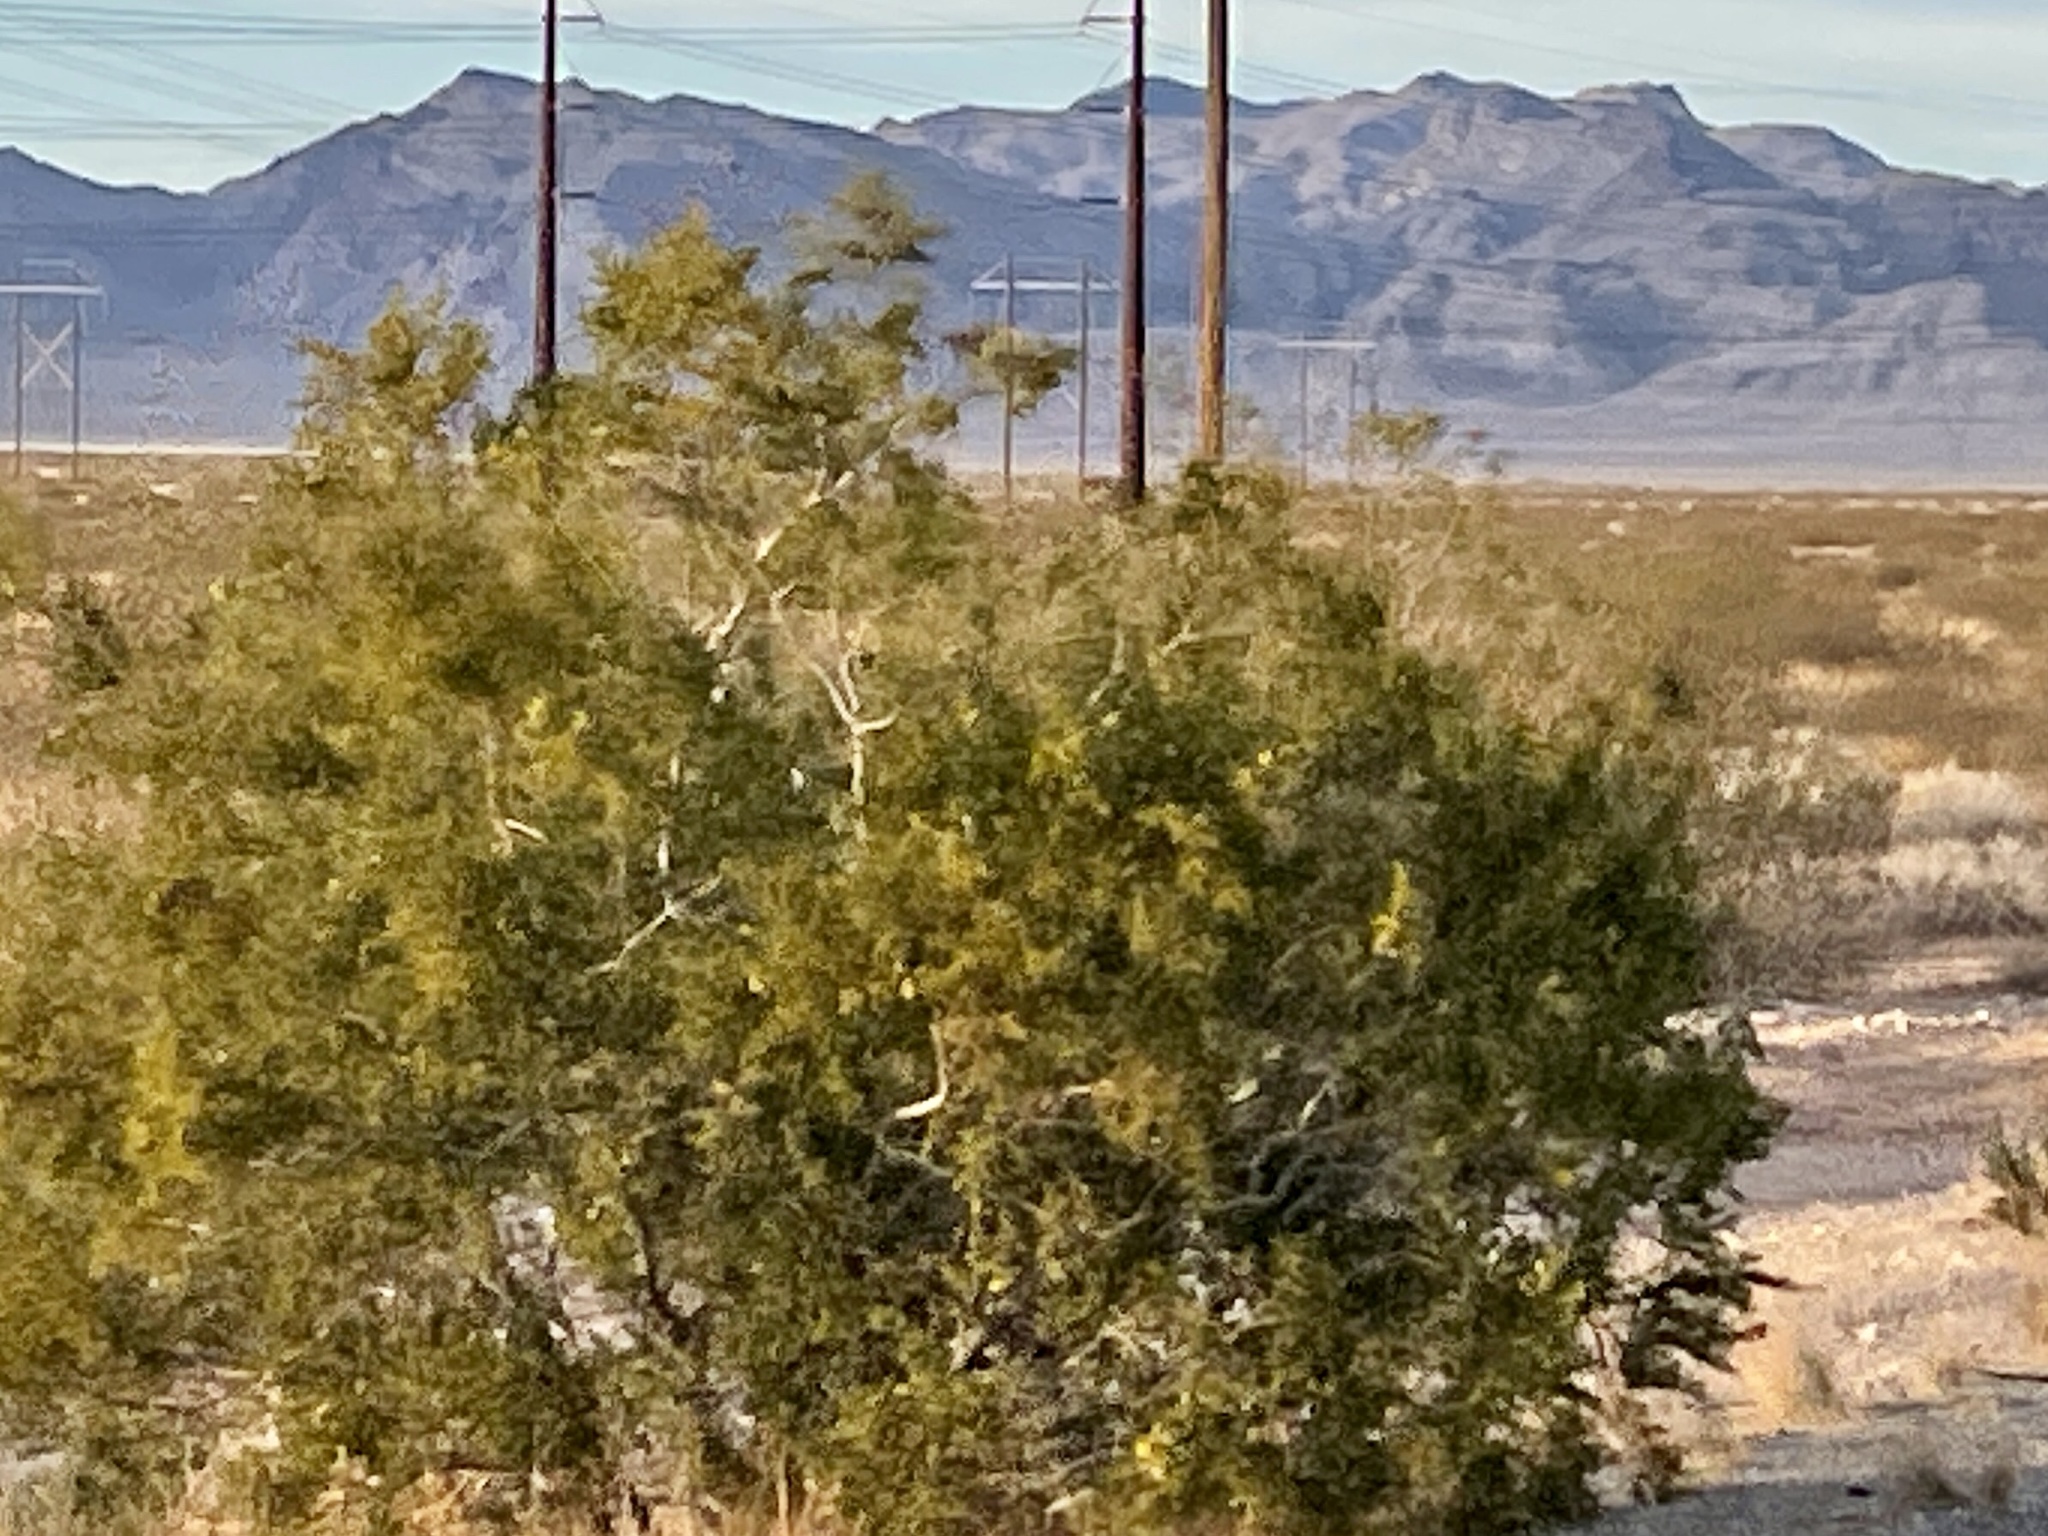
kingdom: Plantae
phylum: Tracheophyta
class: Magnoliopsida
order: Zygophyllales
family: Zygophyllaceae
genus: Larrea
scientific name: Larrea tridentata
